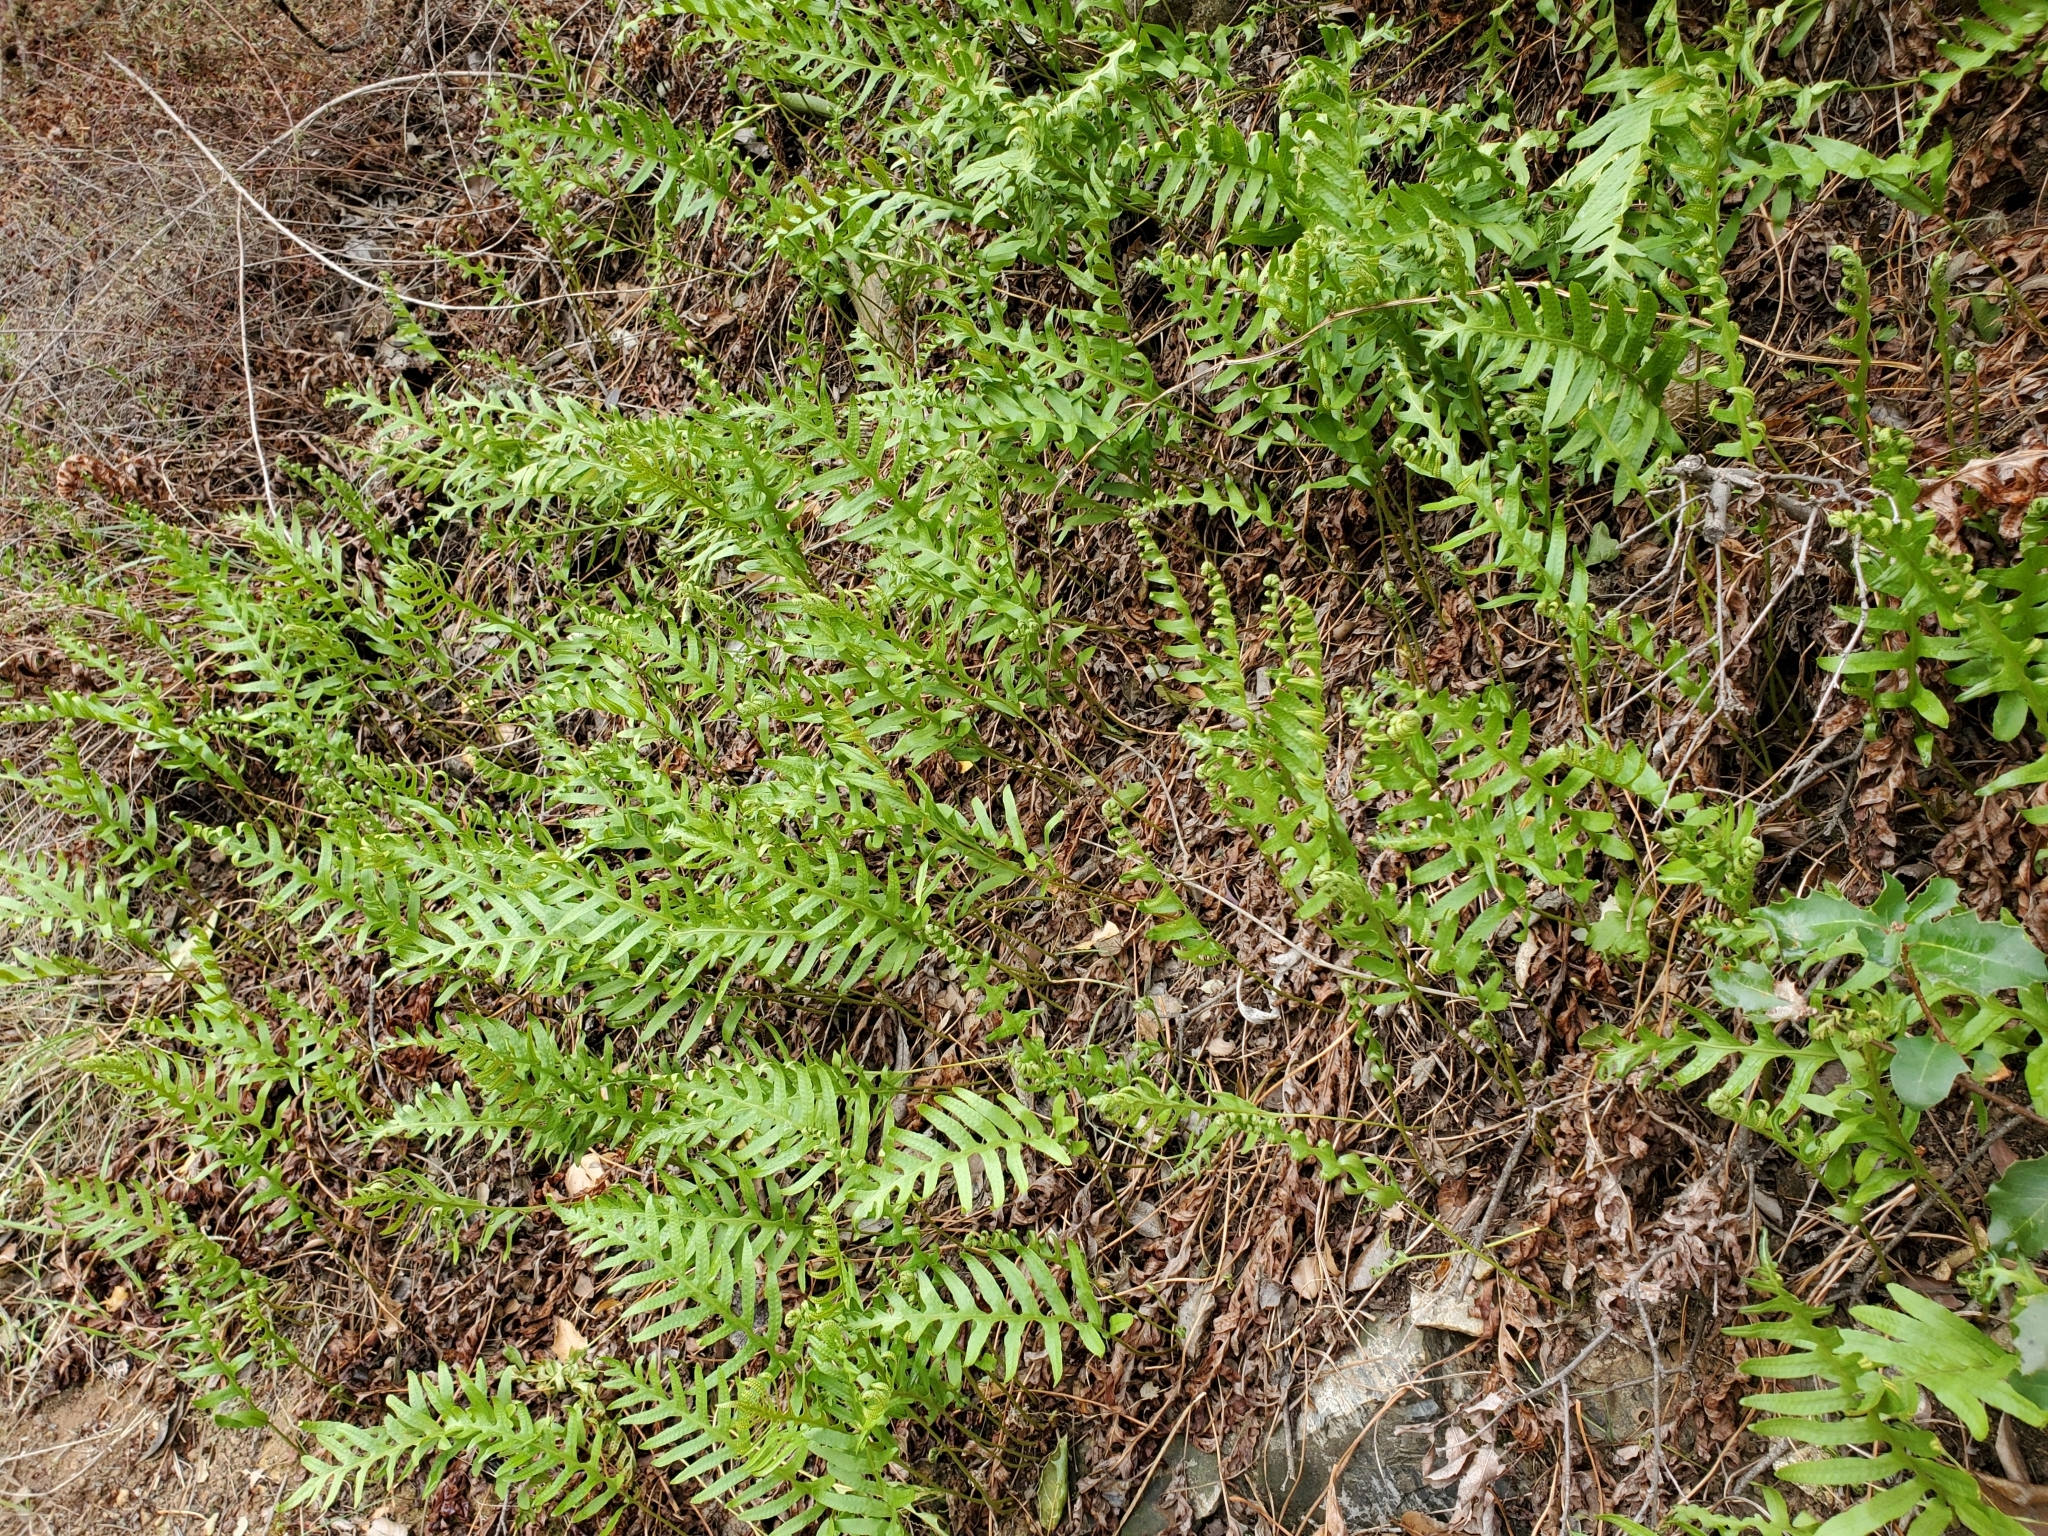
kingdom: Plantae
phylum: Tracheophyta
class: Polypodiopsida
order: Polypodiales
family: Polypodiaceae
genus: Polypodium
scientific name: Polypodium californicum
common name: California polypody
